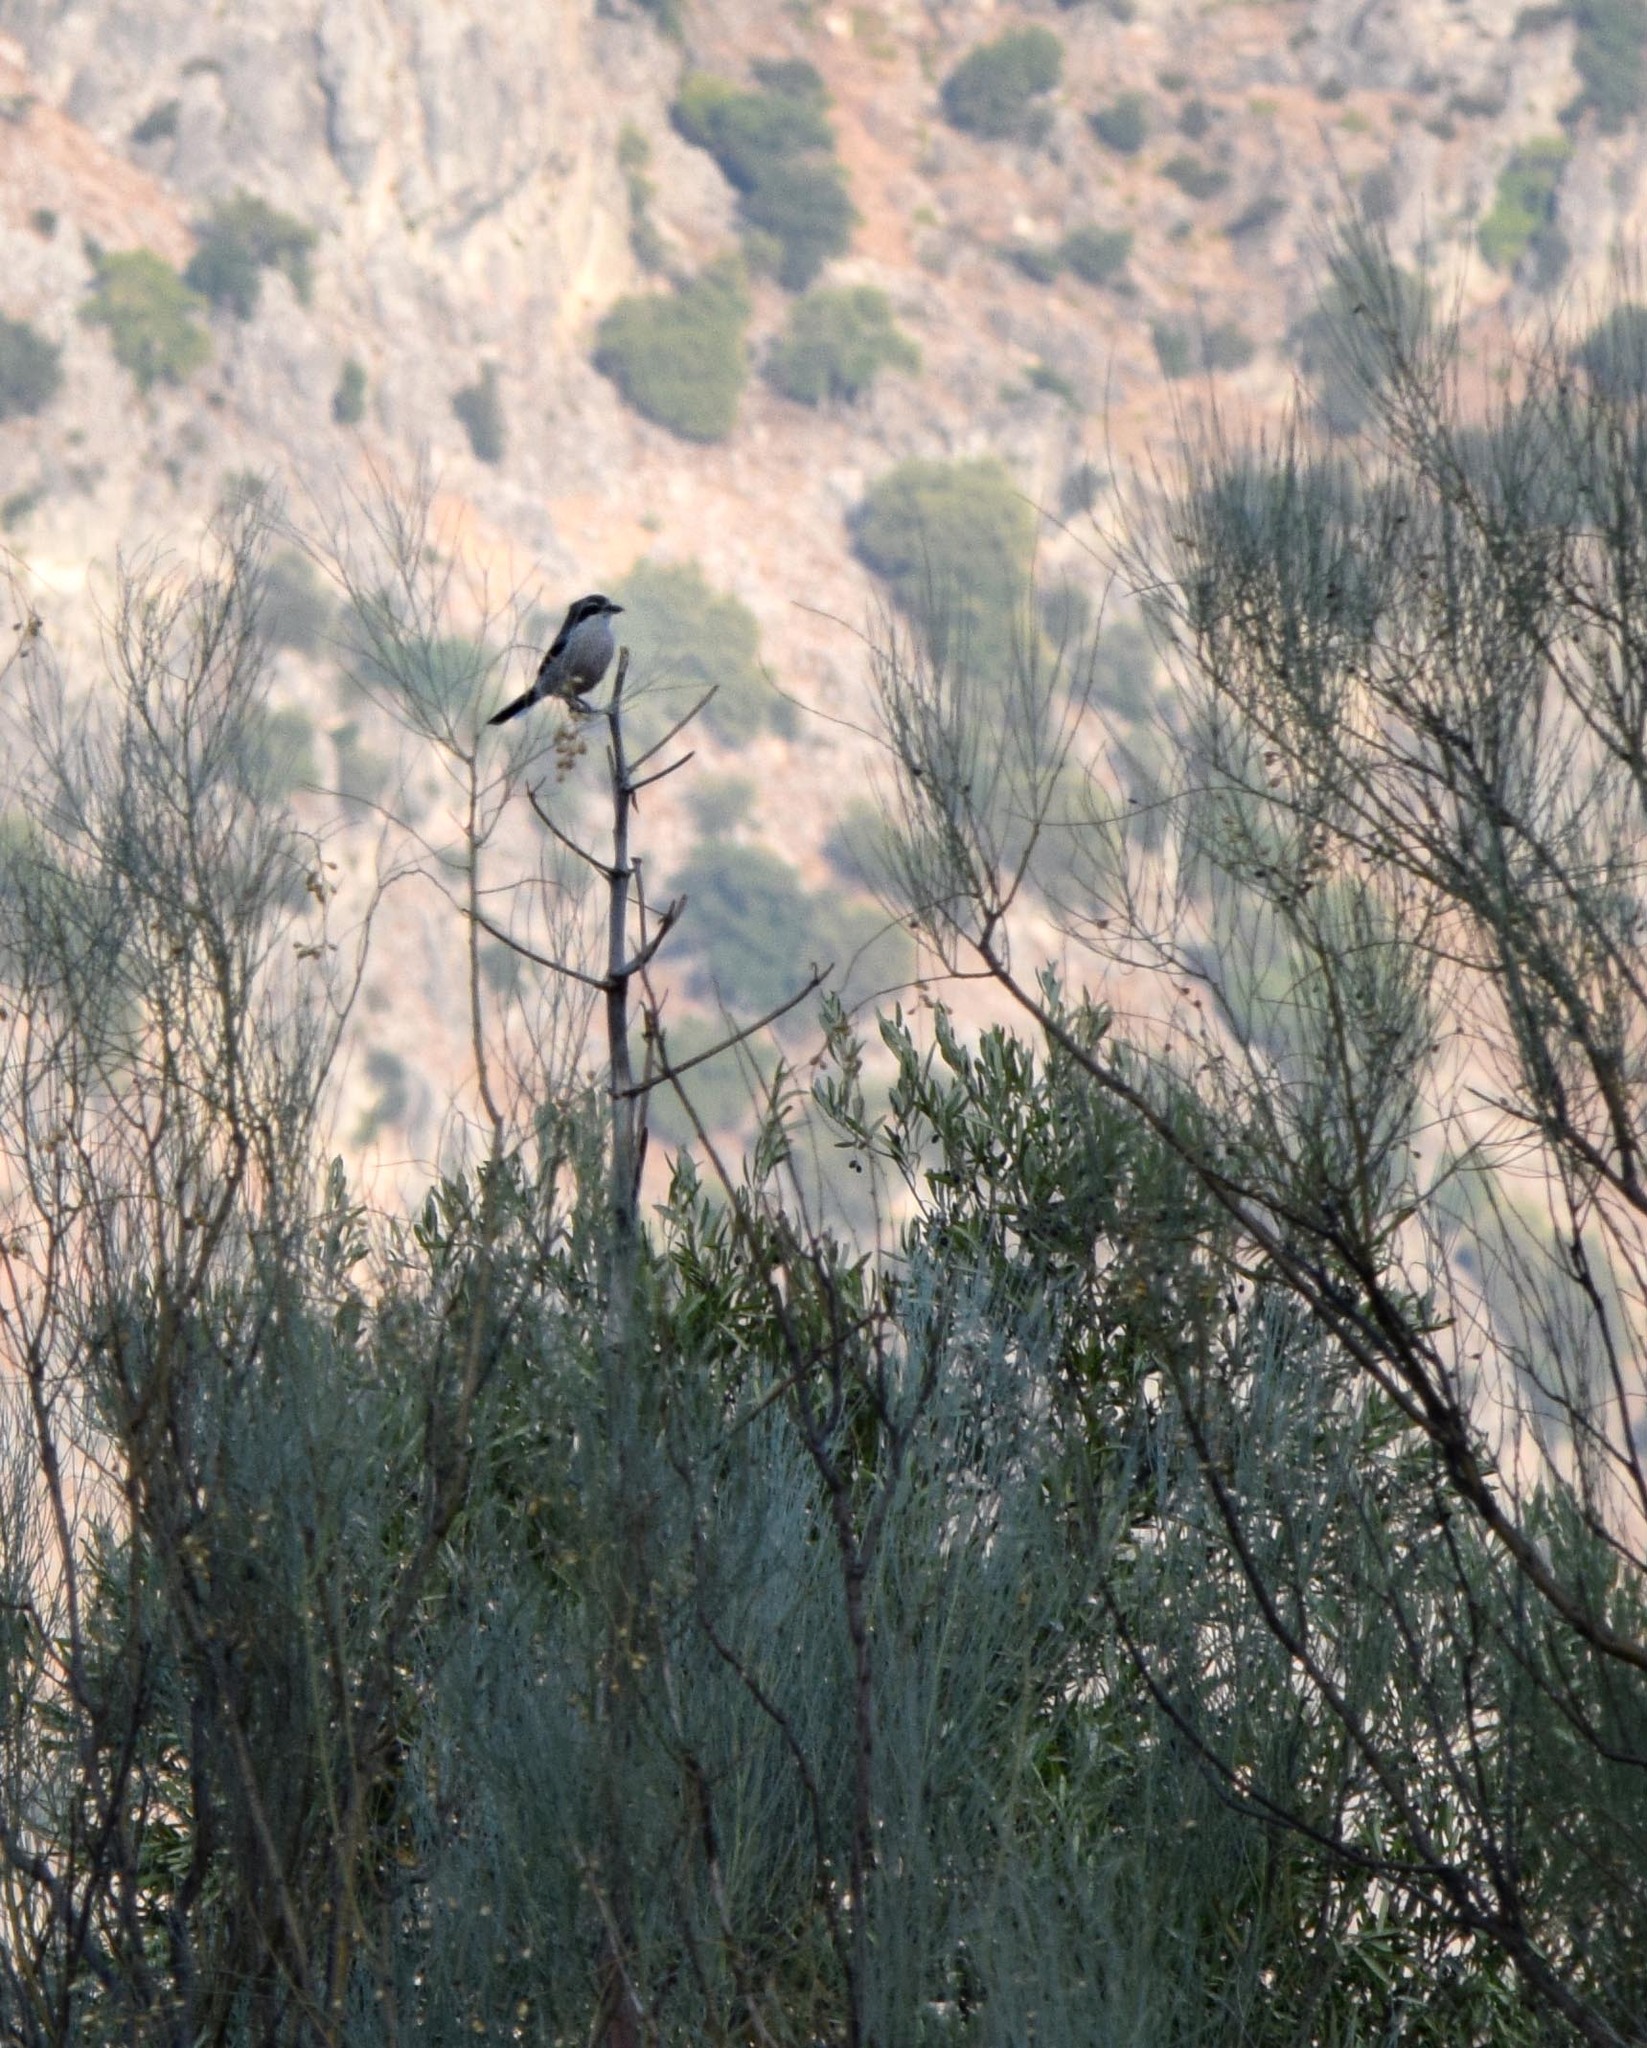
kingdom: Animalia
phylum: Chordata
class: Aves
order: Passeriformes
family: Laniidae
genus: Lanius
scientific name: Lanius meridionalis
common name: Iberian grey shrike
